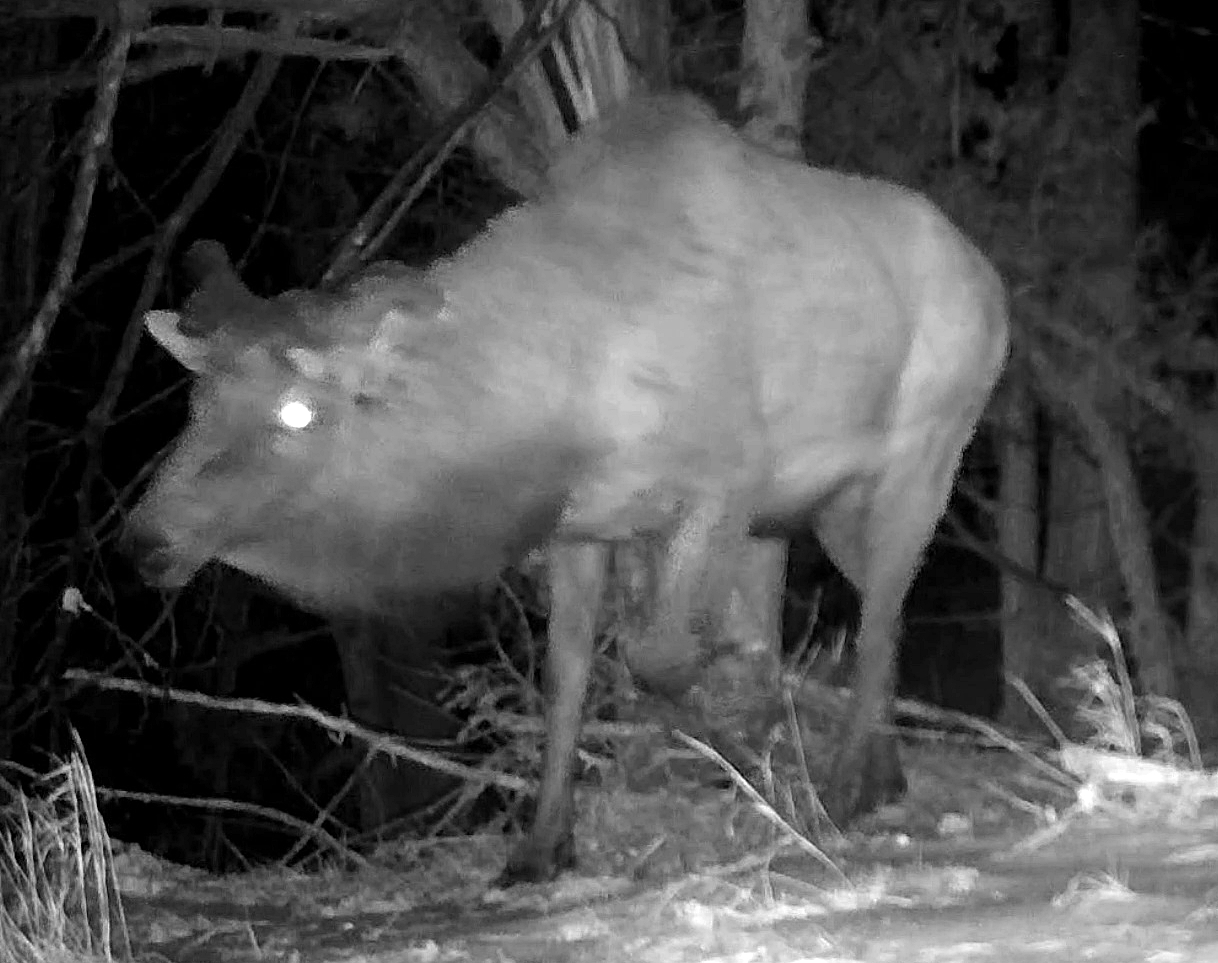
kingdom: Animalia
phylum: Chordata
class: Mammalia
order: Artiodactyla
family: Cervidae
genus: Cervus
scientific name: Cervus elaphus
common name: Red deer
